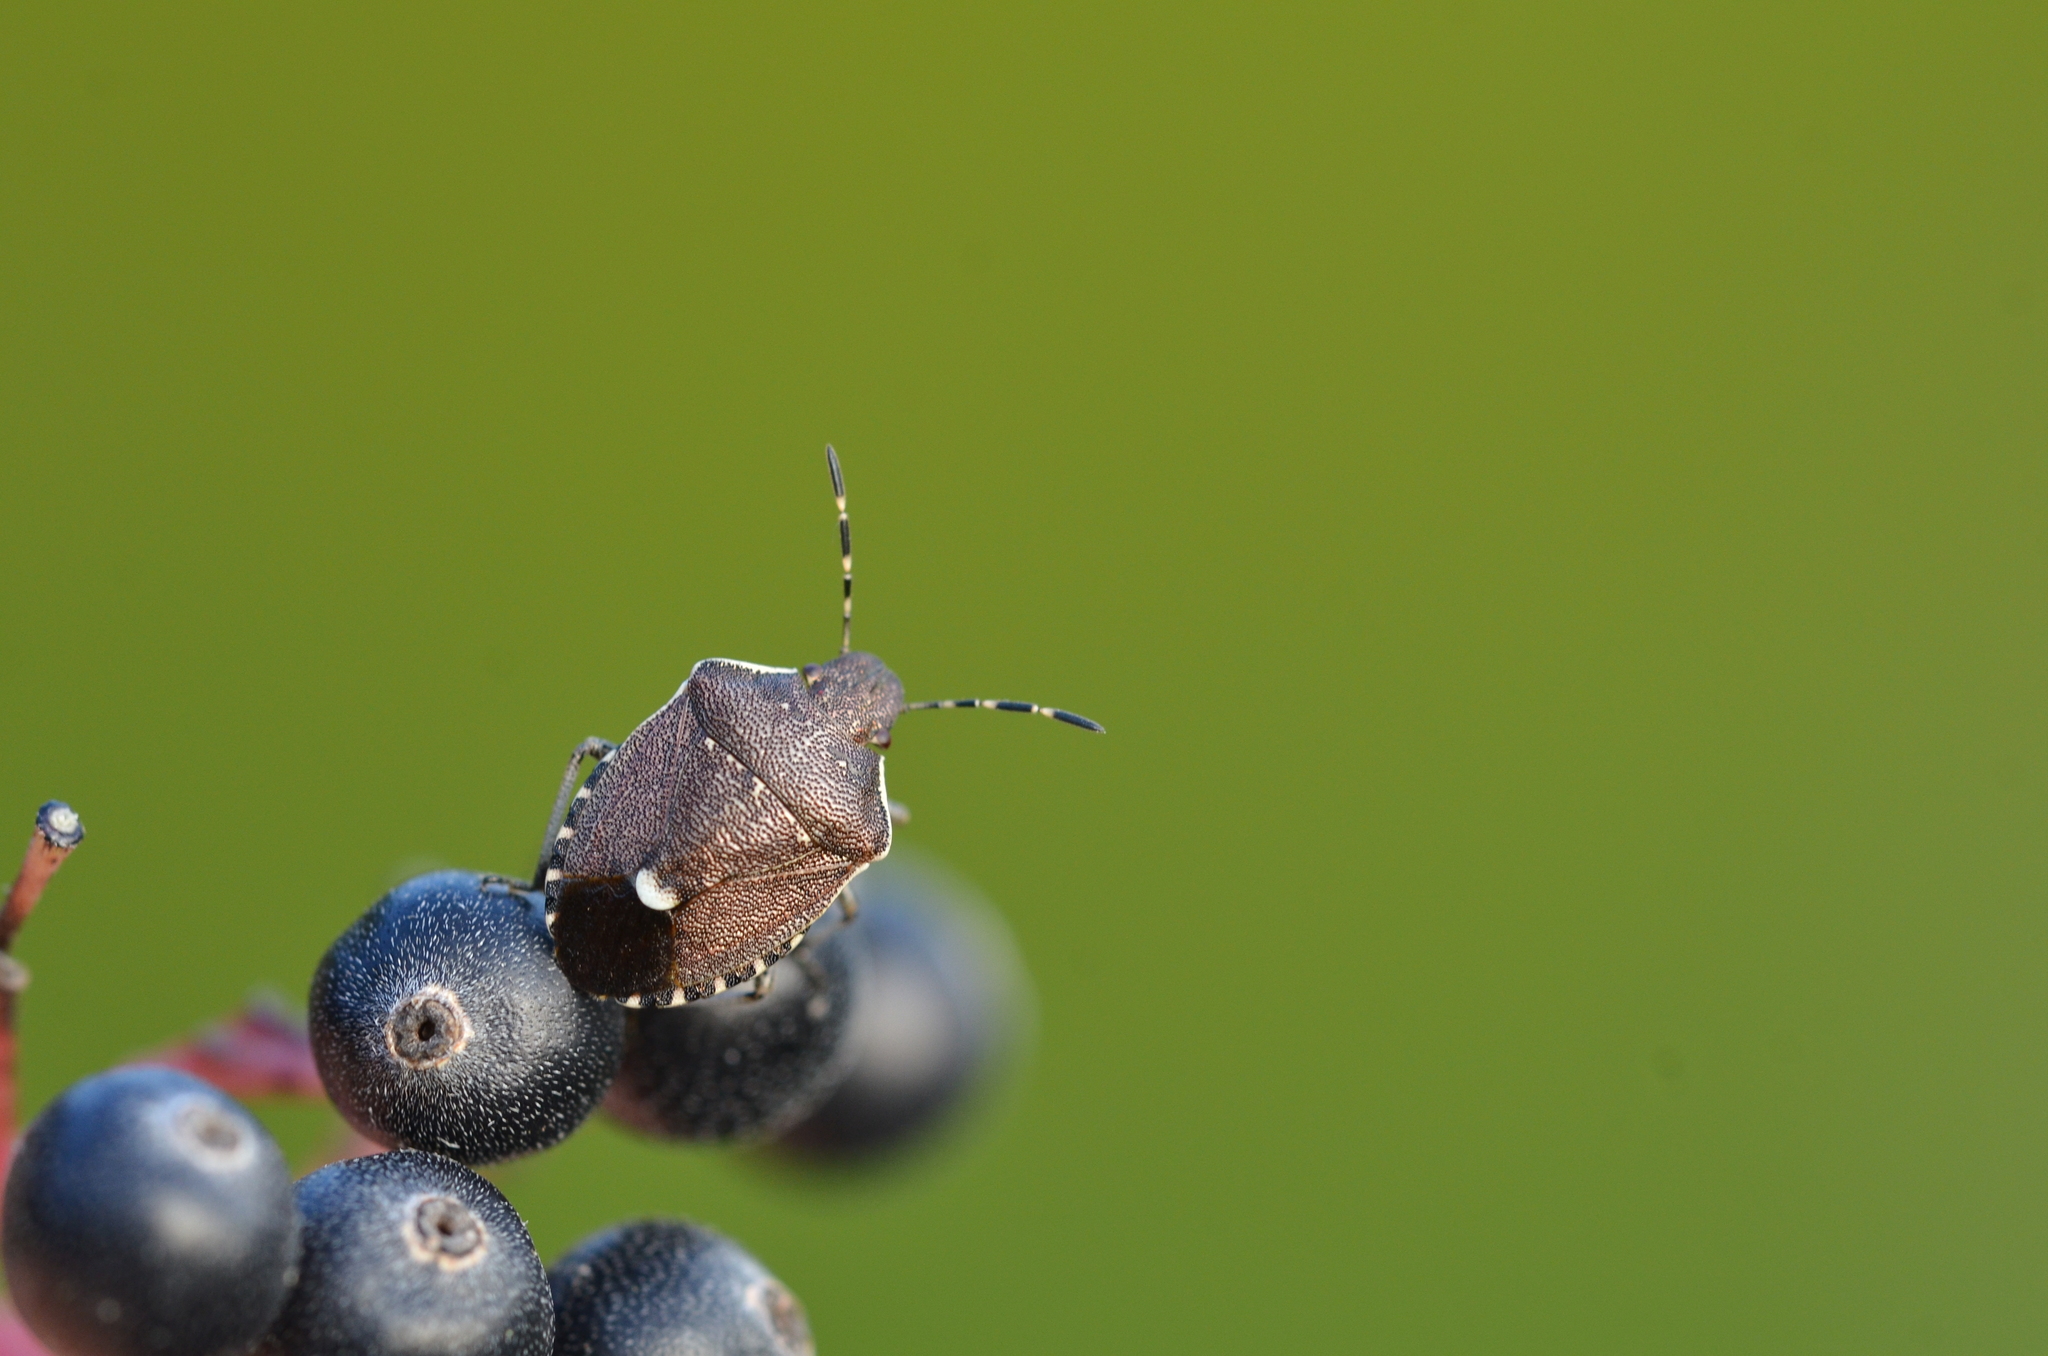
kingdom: Animalia
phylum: Arthropoda
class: Insecta
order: Hemiptera
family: Pentatomidae
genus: Holcostethus
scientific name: Holcostethus sphacelatus
